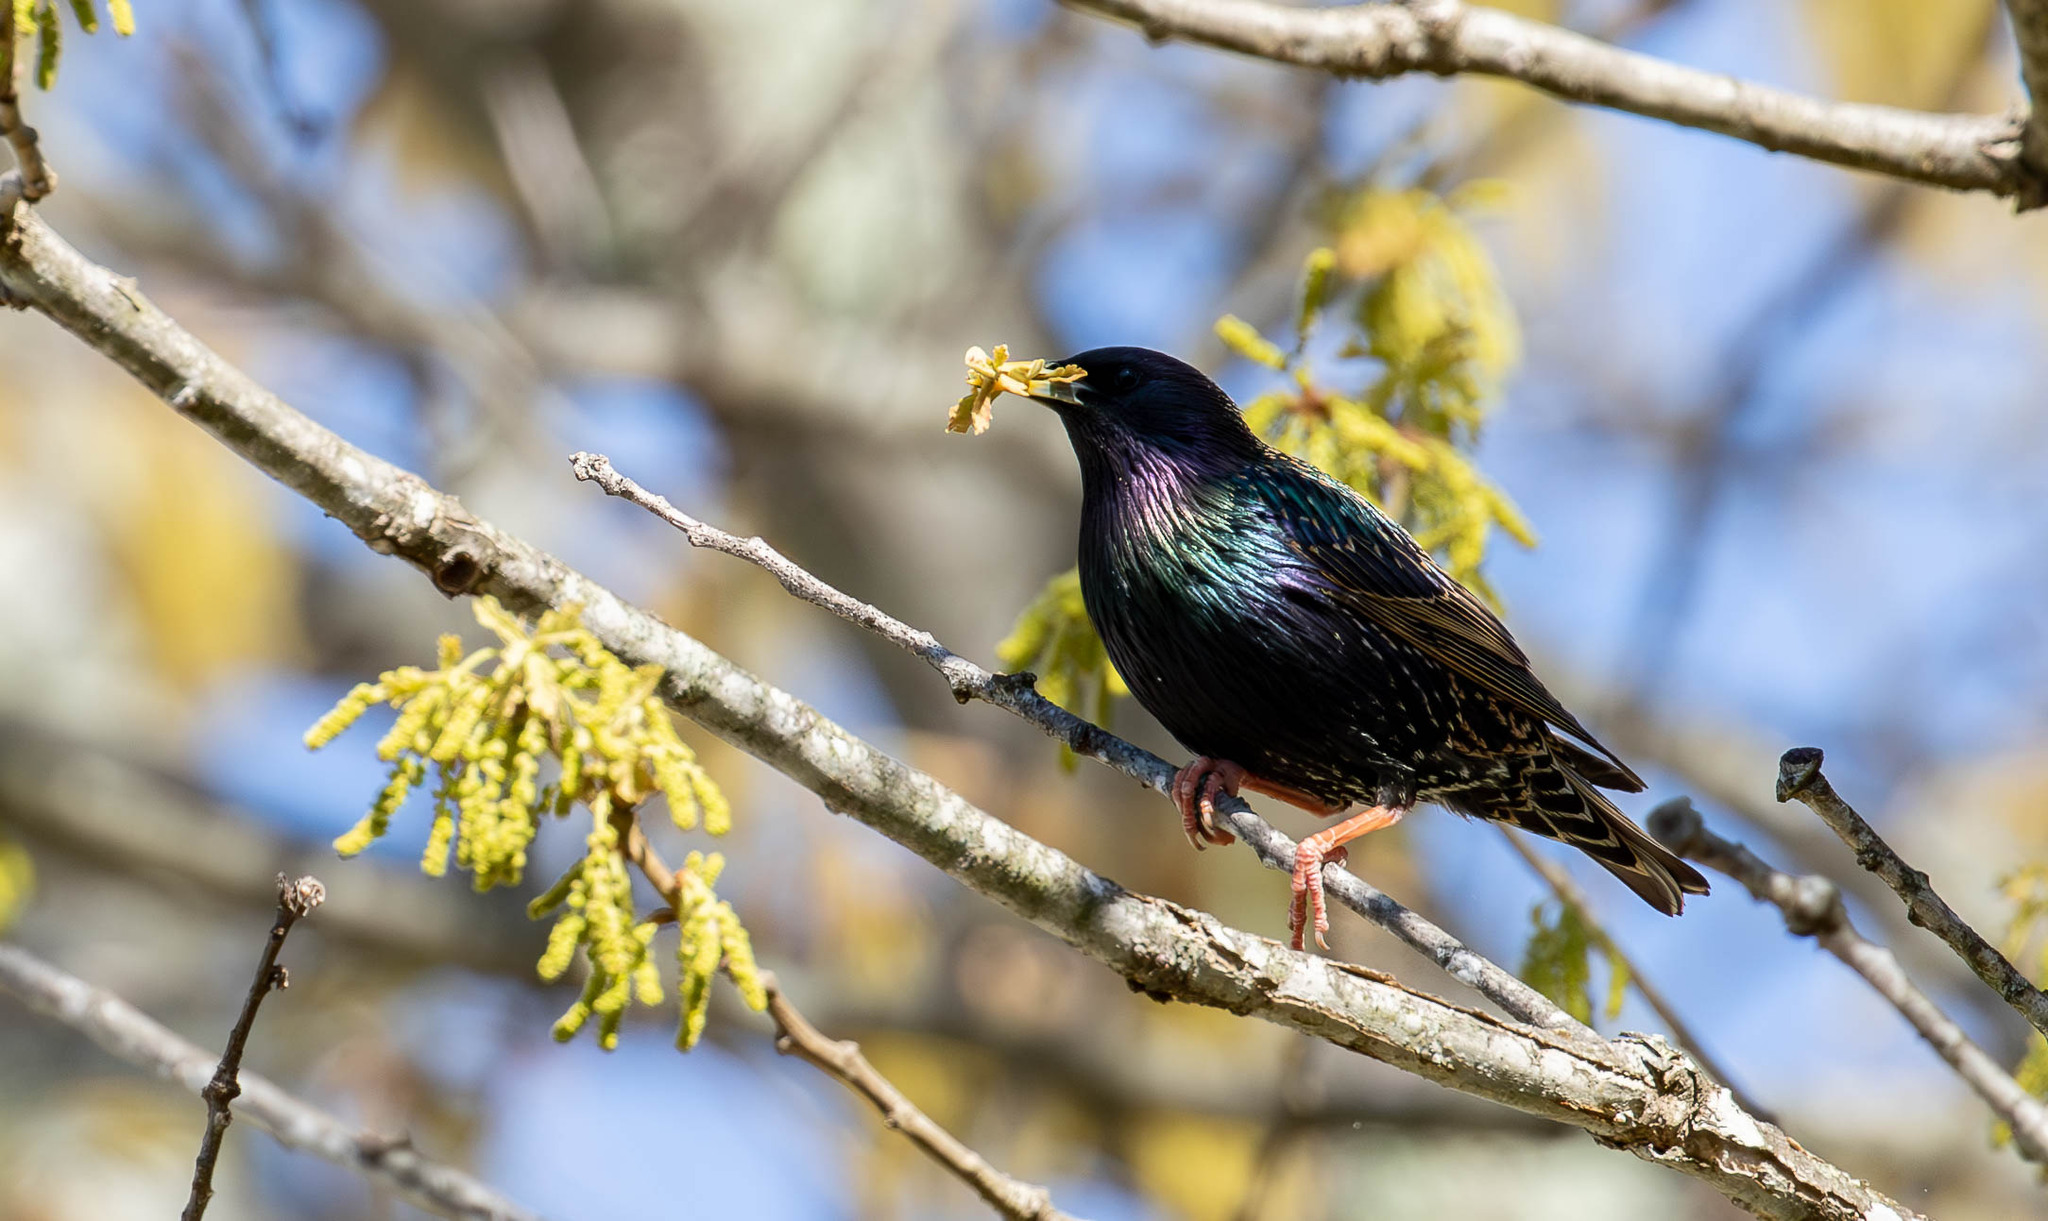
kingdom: Animalia
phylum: Chordata
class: Aves
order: Passeriformes
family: Sturnidae
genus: Sturnus
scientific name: Sturnus vulgaris
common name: Common starling
